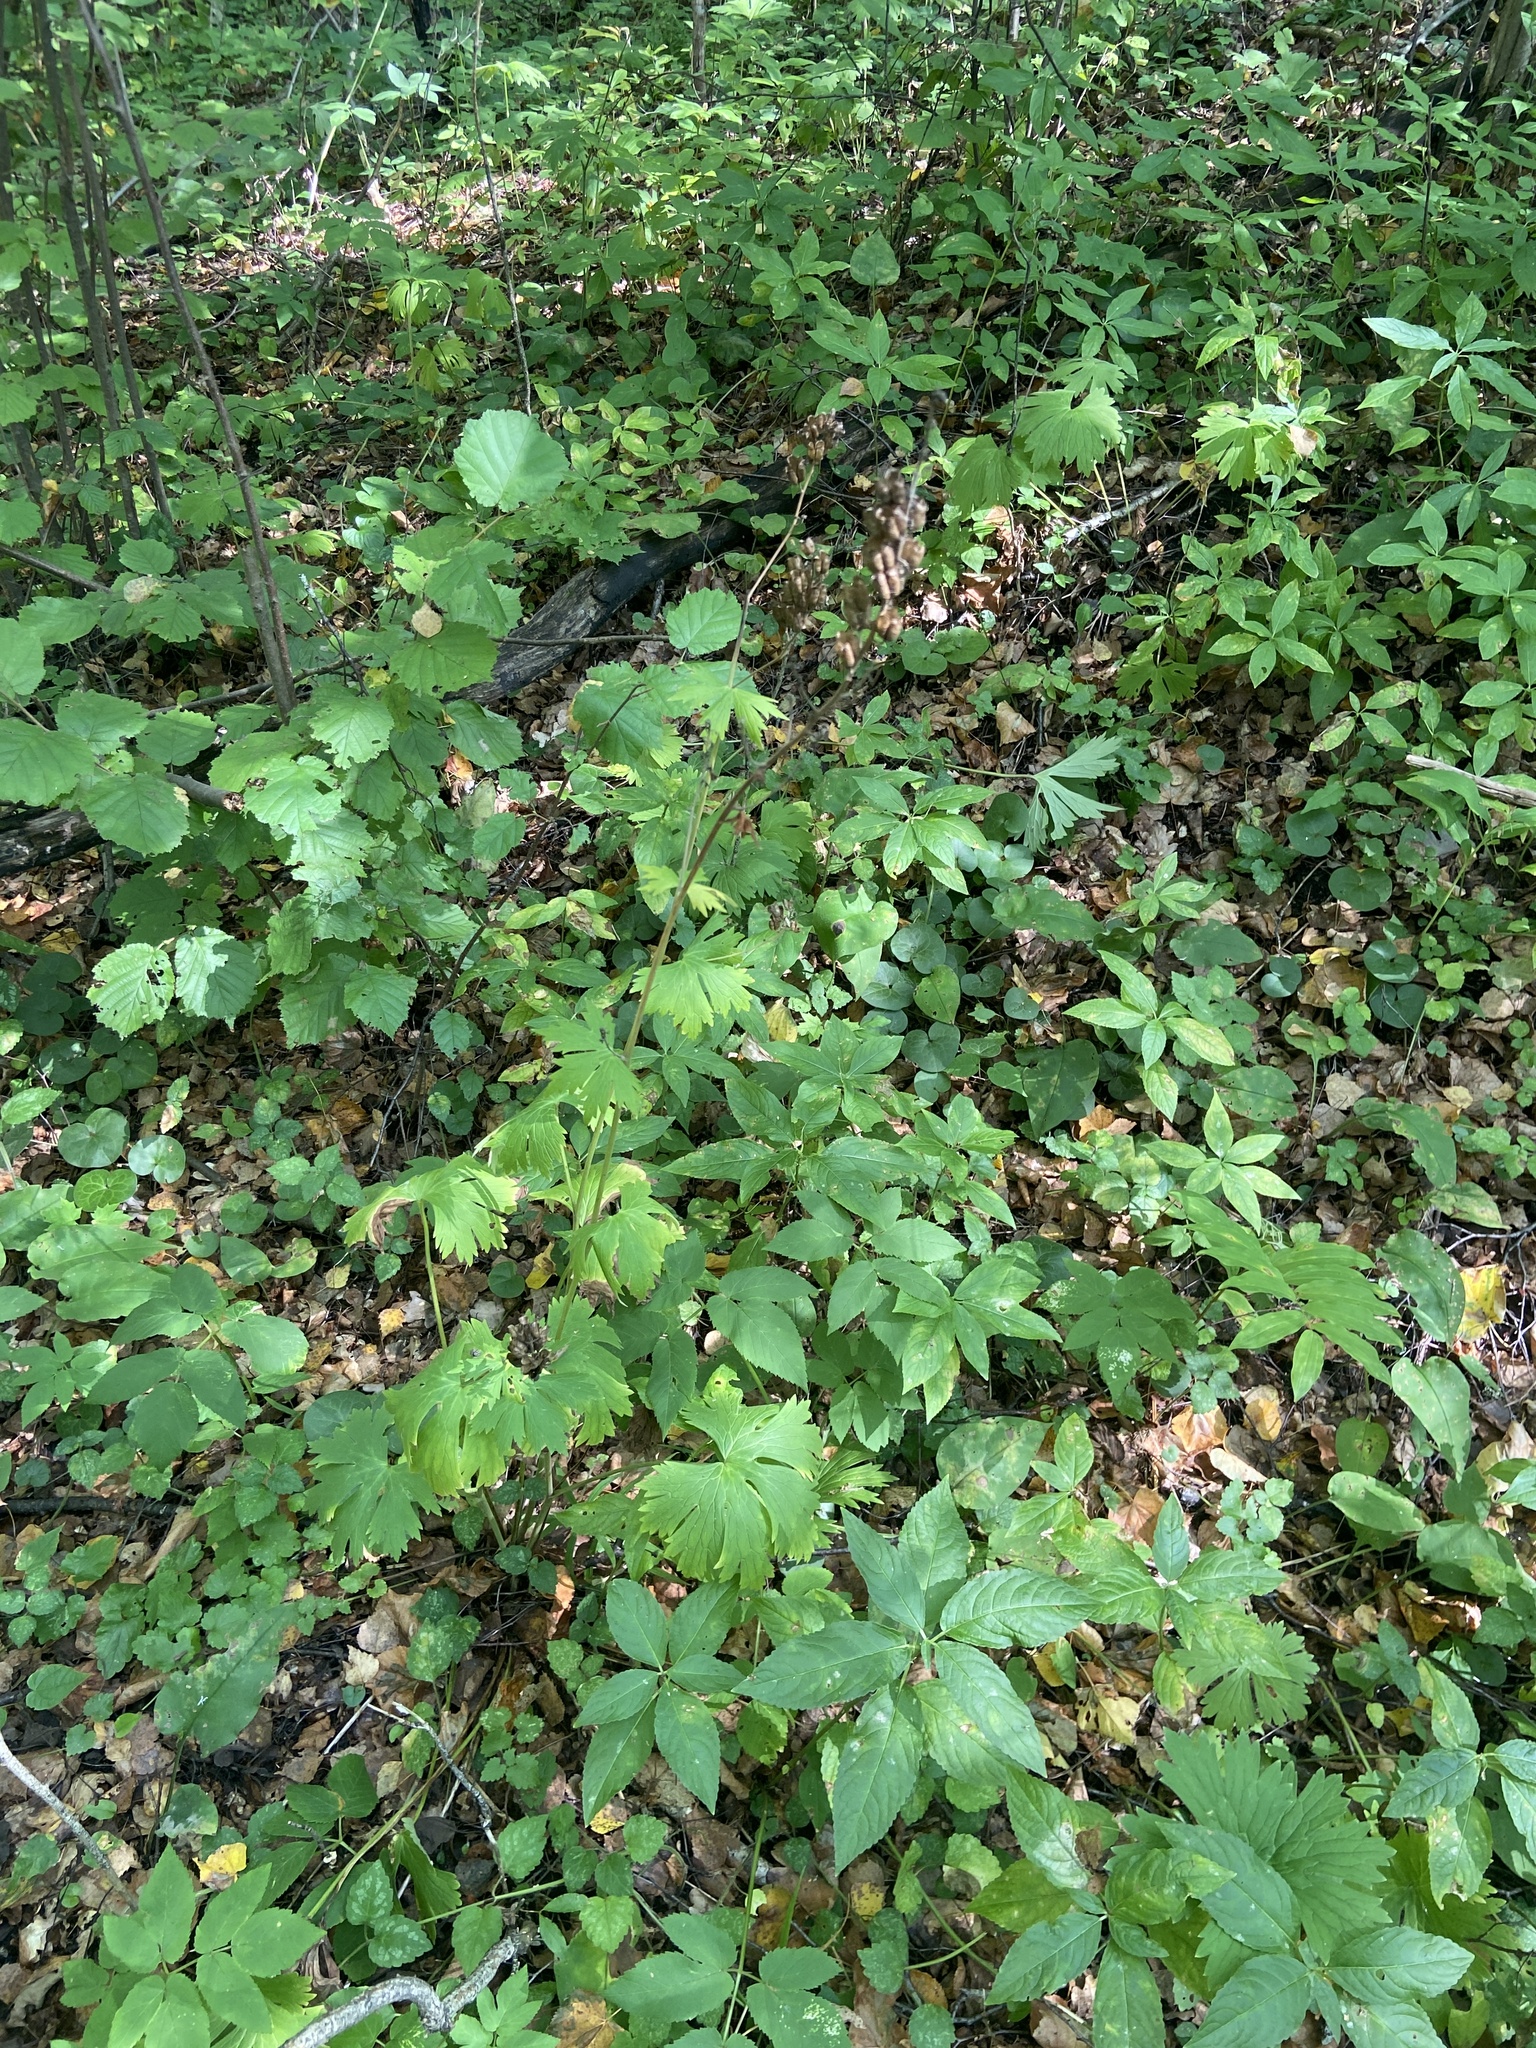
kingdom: Plantae
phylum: Tracheophyta
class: Magnoliopsida
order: Ranunculales
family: Ranunculaceae
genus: Aconitum
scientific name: Aconitum lasiostomum
